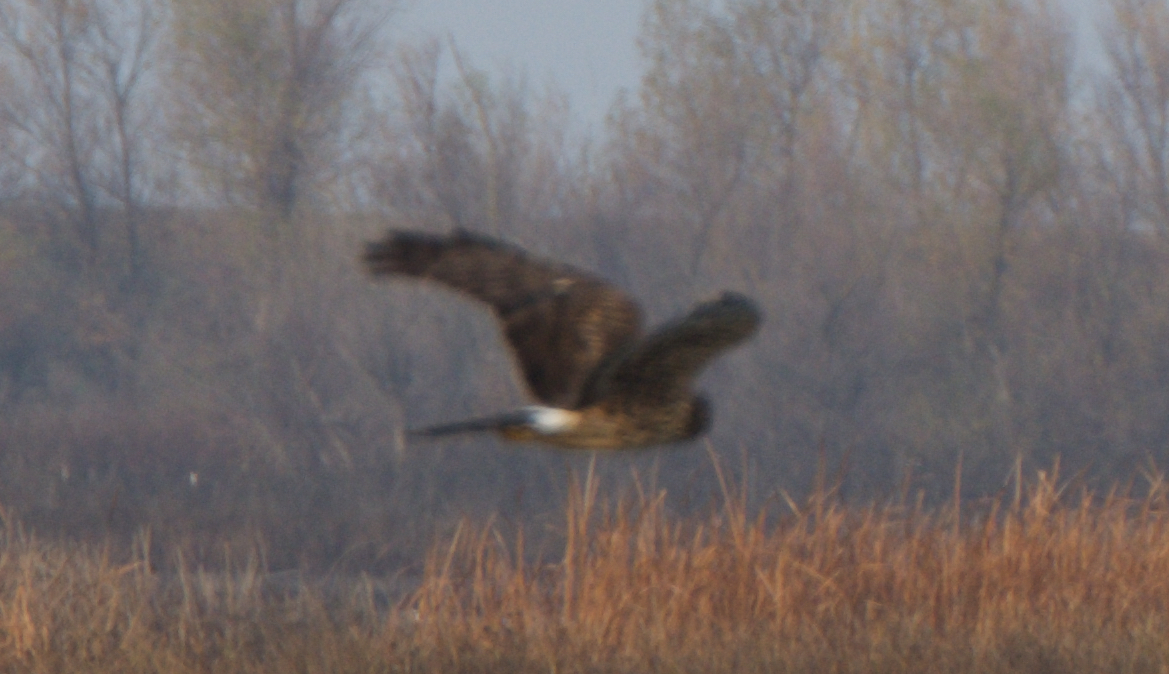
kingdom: Animalia
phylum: Chordata
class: Aves
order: Accipitriformes
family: Accipitridae
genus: Circus
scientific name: Circus cyaneus
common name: Hen harrier
